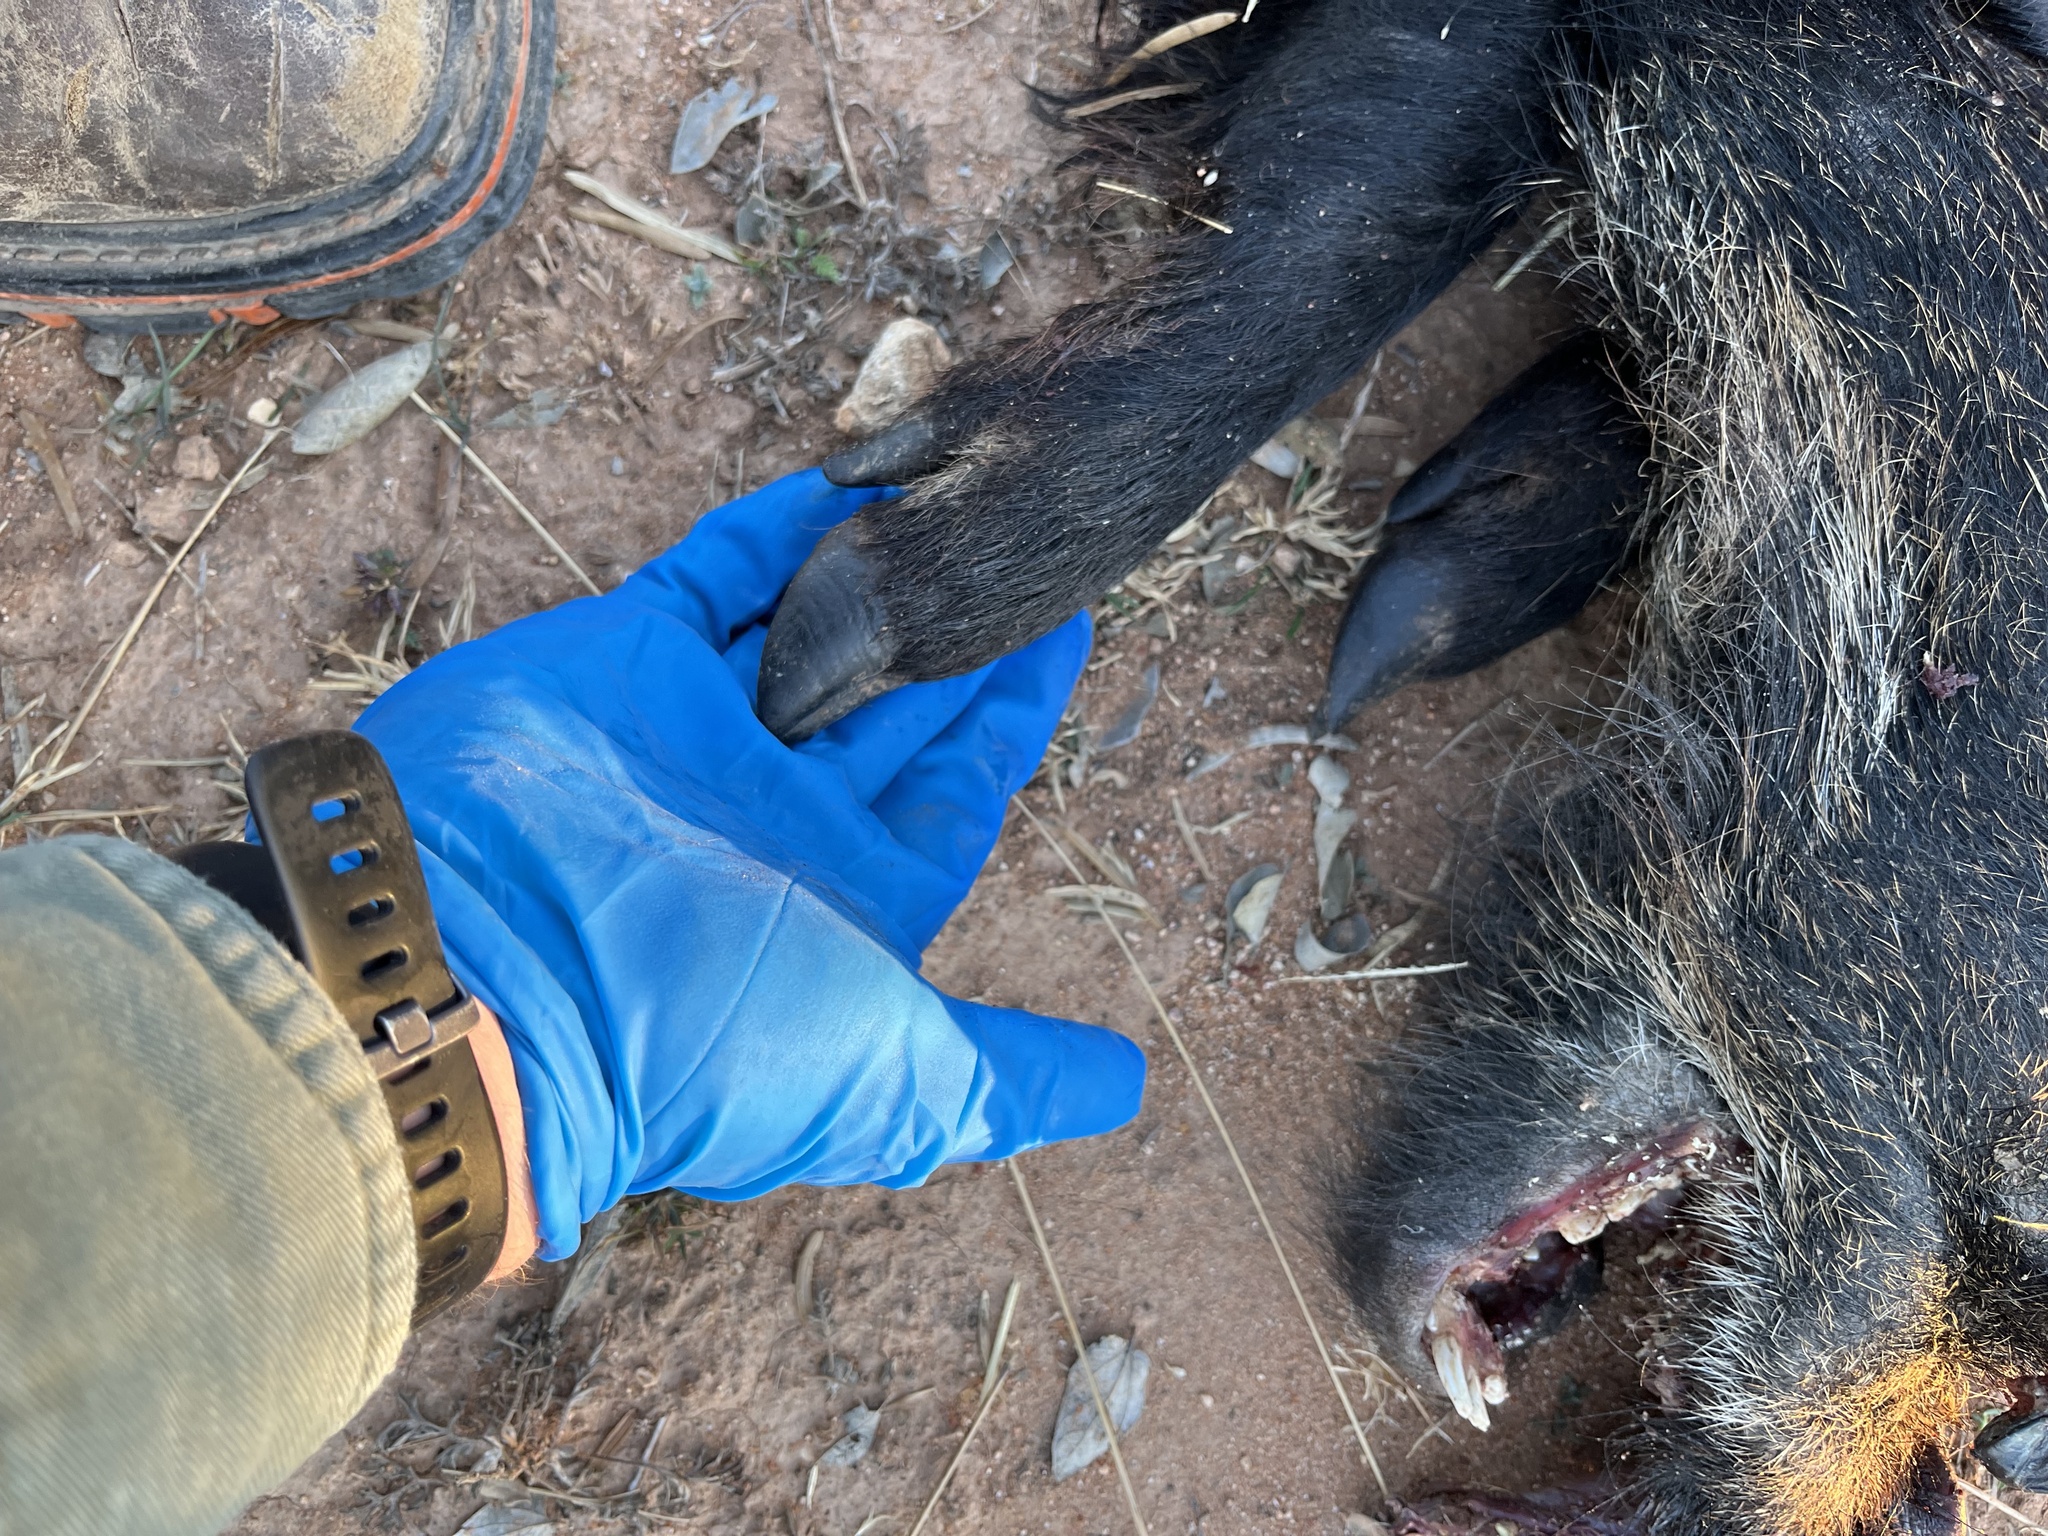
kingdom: Animalia
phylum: Chordata
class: Mammalia
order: Artiodactyla
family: Suidae
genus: Sus
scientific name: Sus scrofa
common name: Wild boar
